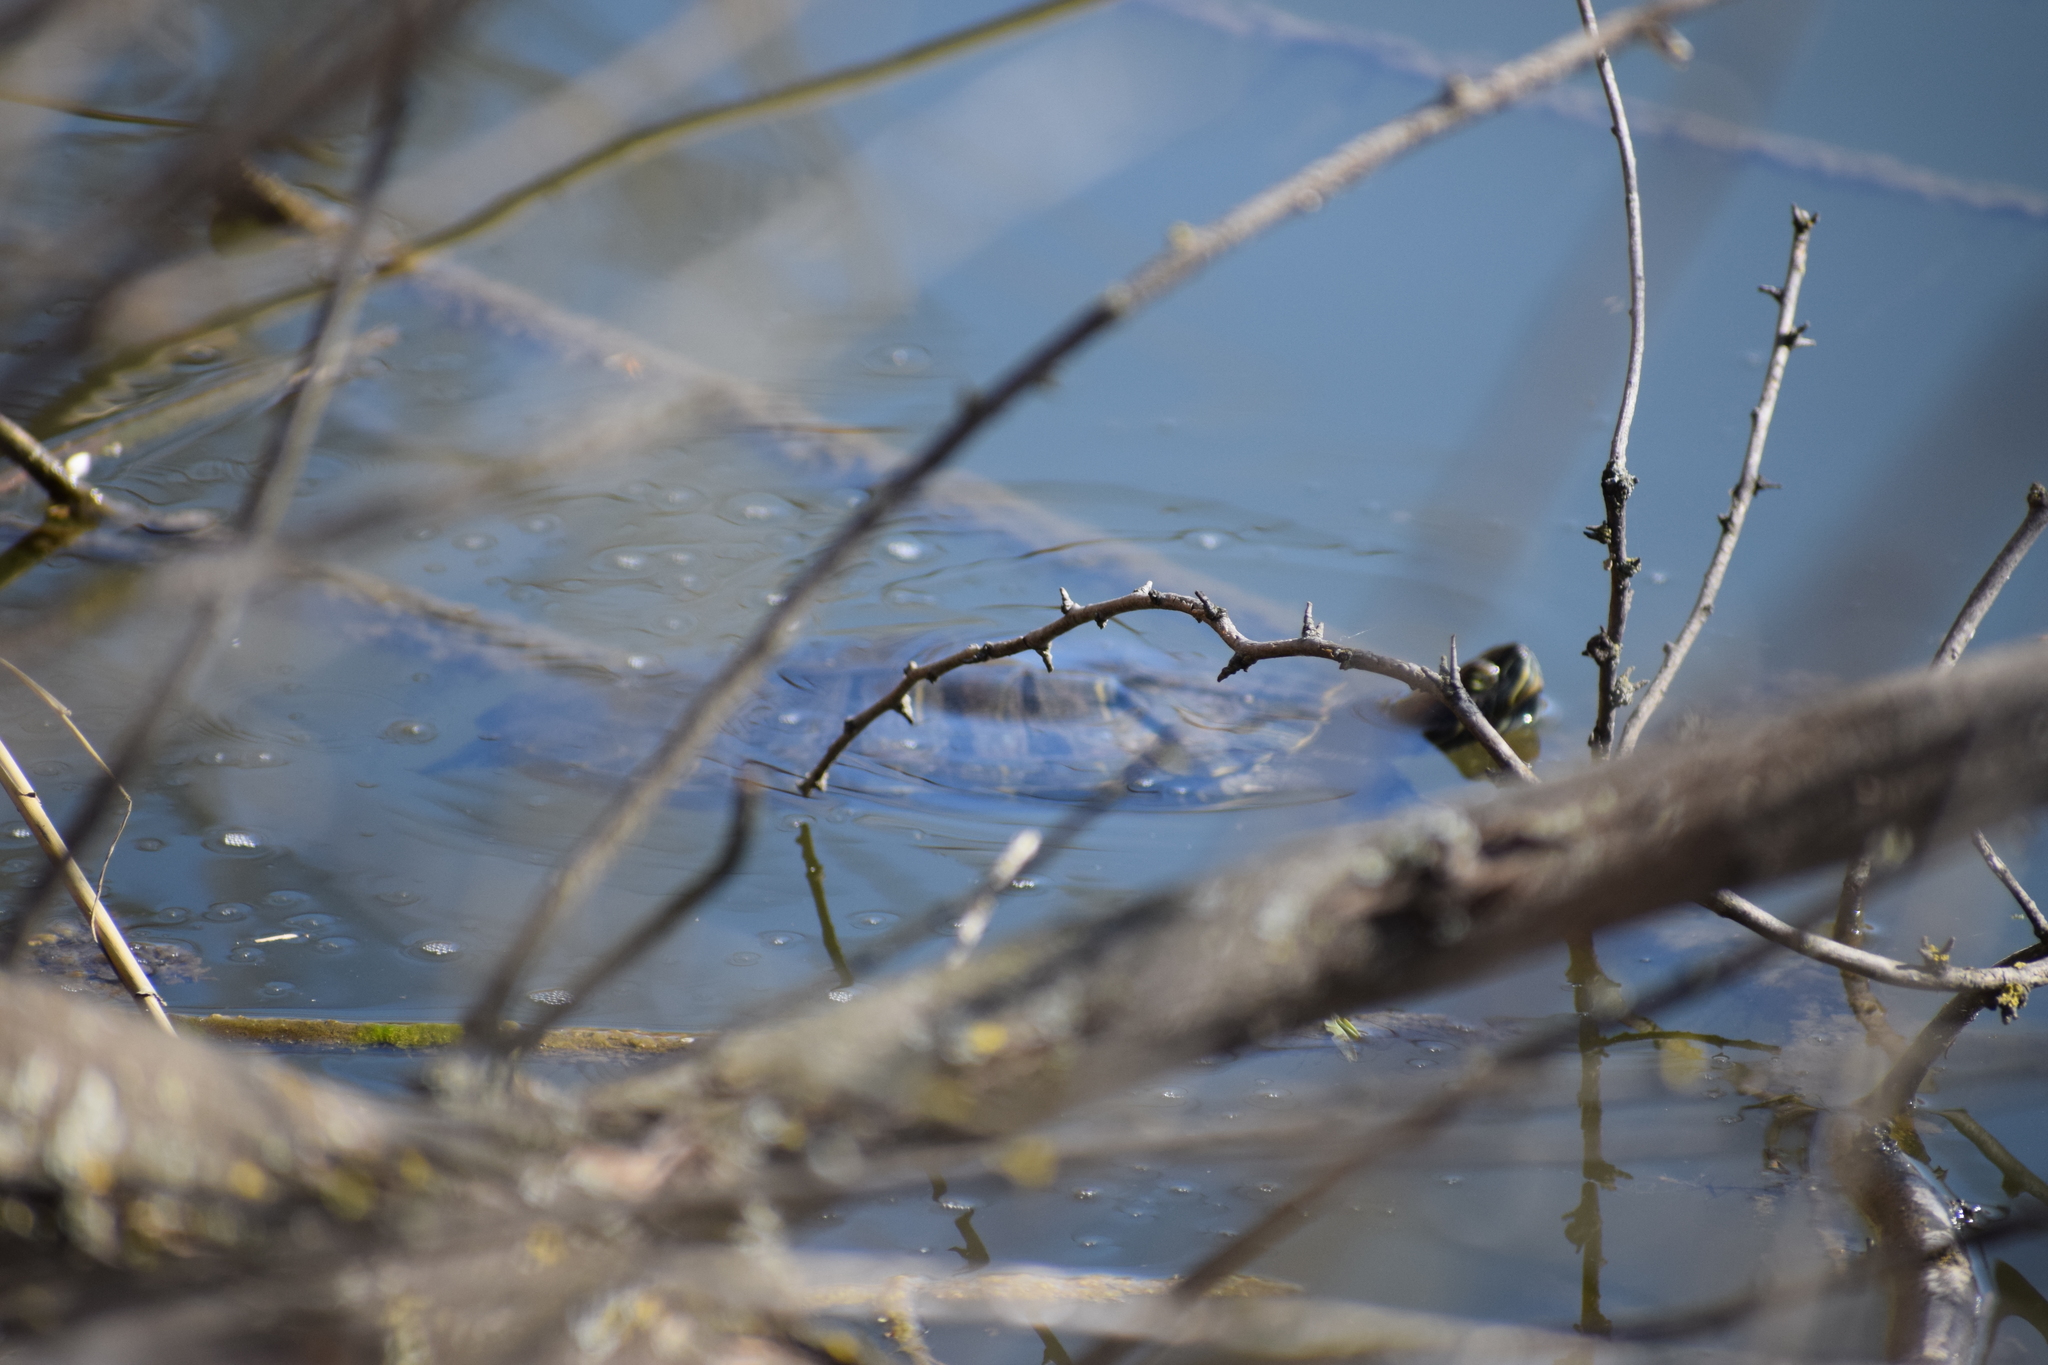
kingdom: Animalia
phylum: Chordata
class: Testudines
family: Emydidae
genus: Trachemys
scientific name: Trachemys scripta
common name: Slider
